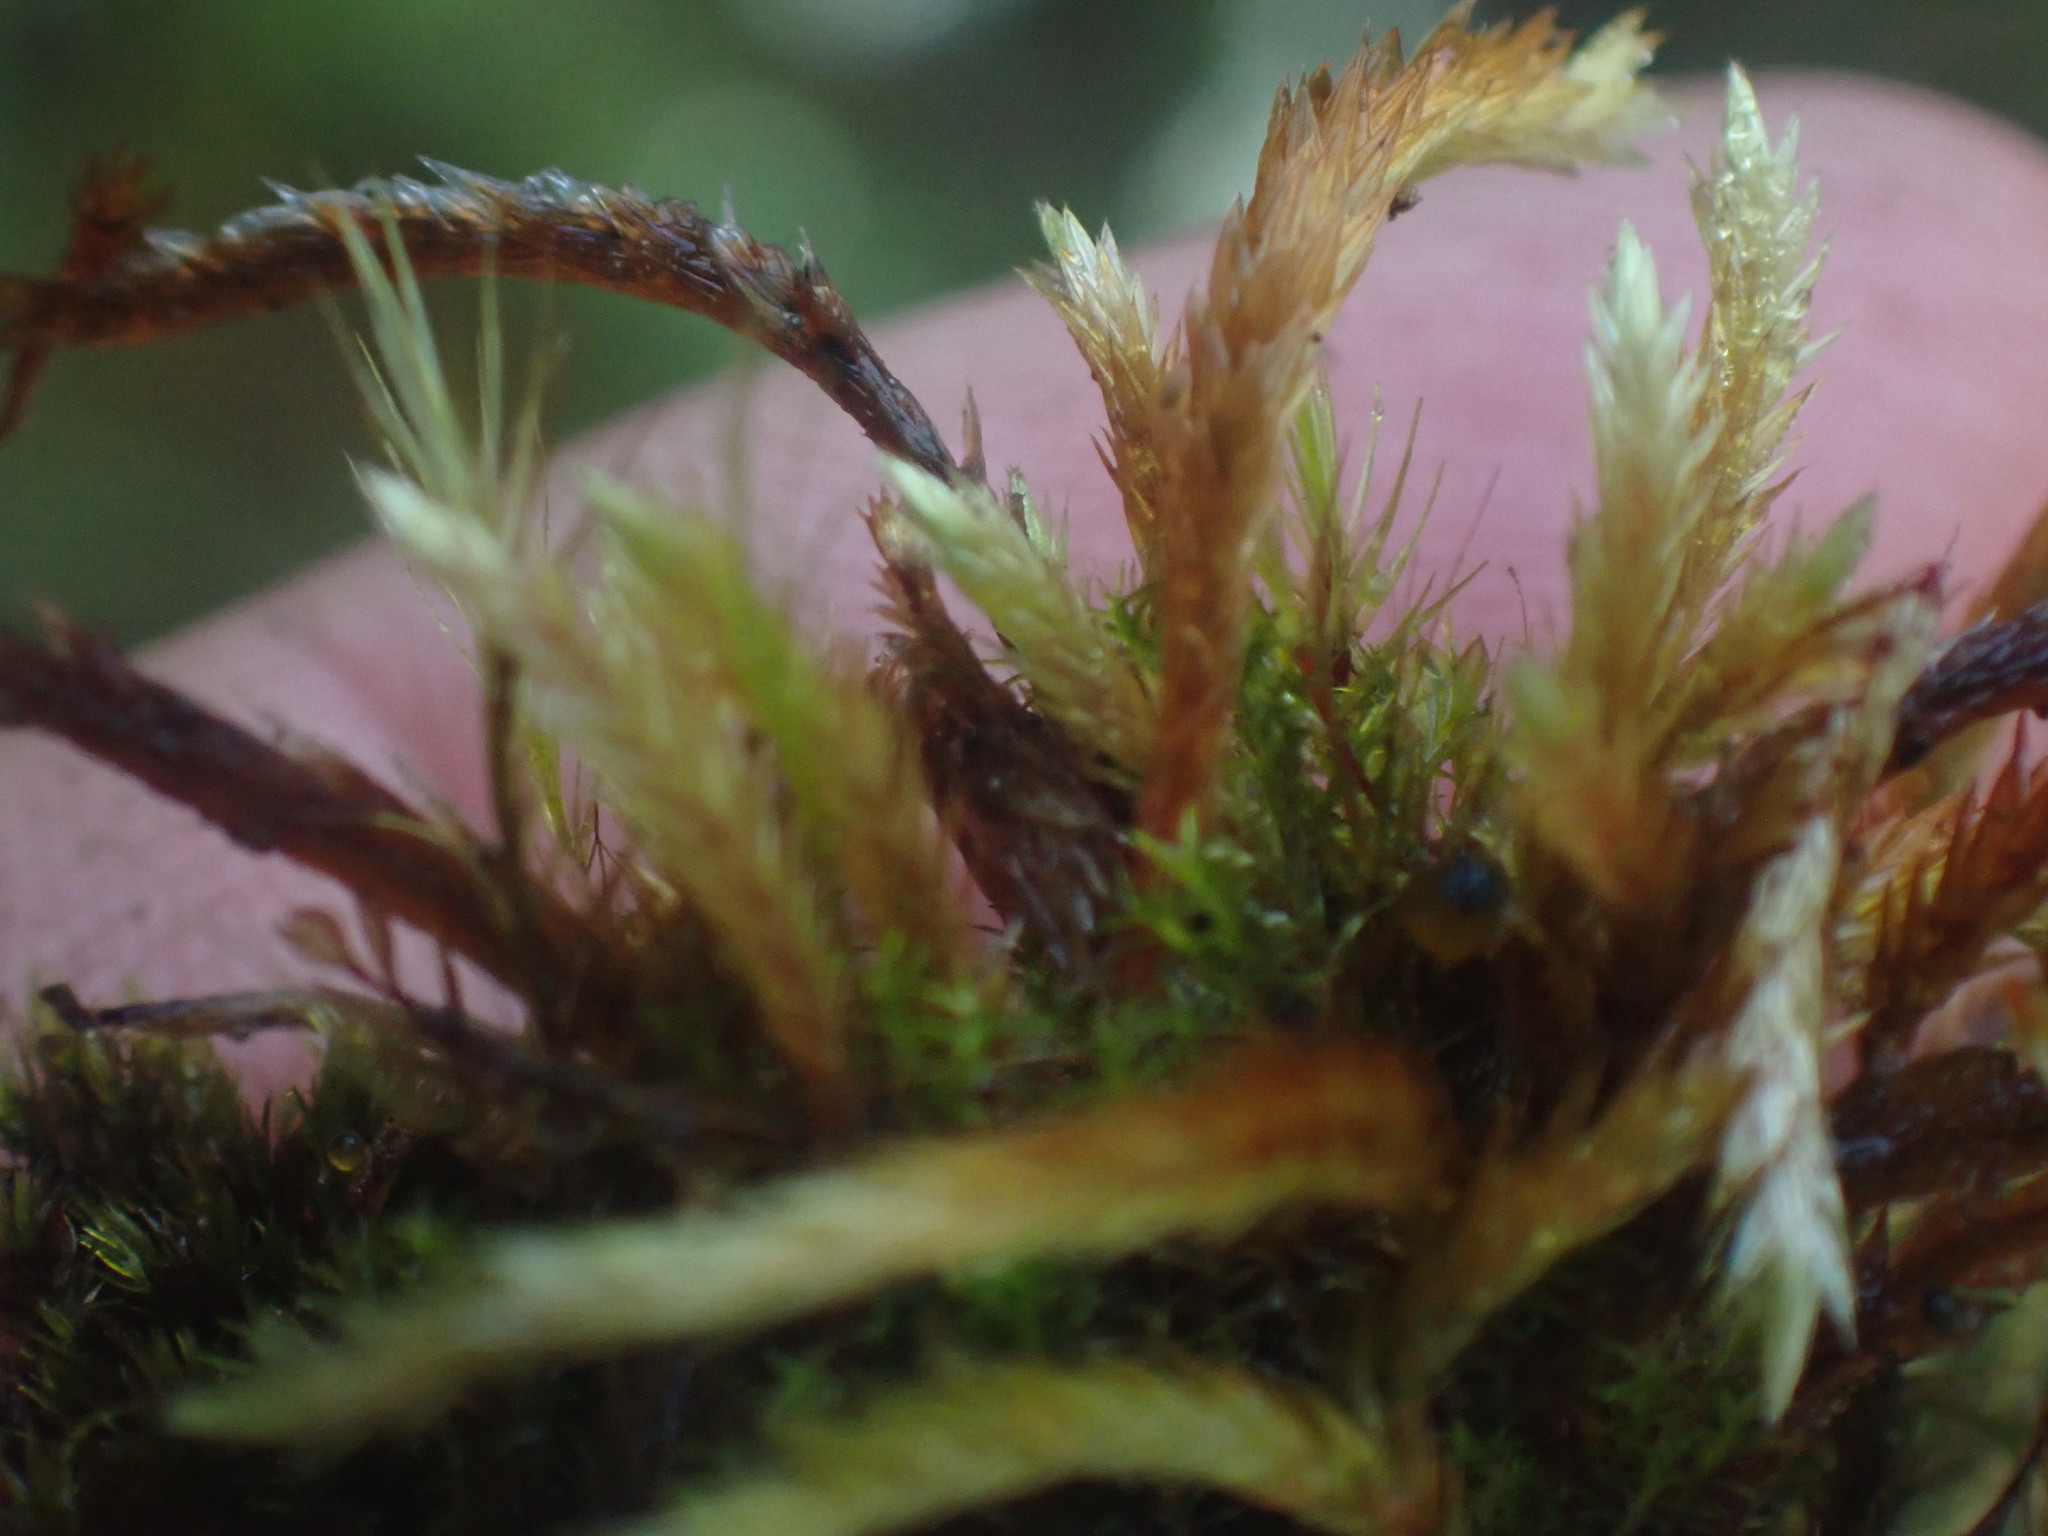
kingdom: Plantae
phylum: Bryophyta
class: Bryopsida
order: Hypnales
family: Amblystegiaceae
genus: Tomentypnum
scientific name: Tomentypnum nitens
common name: Golden fuzzy fen moss
